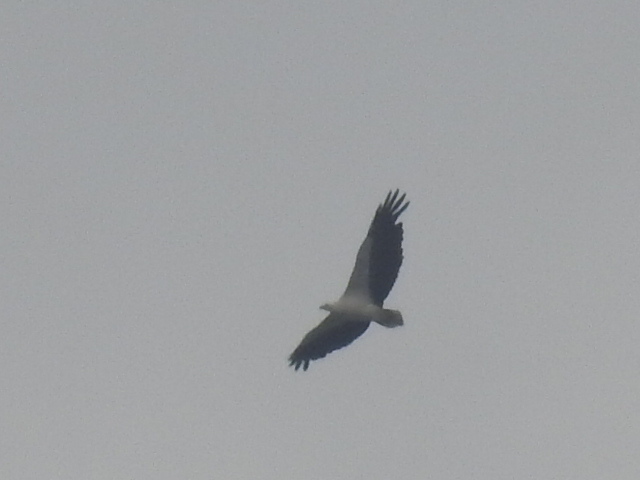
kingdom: Animalia
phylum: Chordata
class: Aves
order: Accipitriformes
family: Accipitridae
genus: Haliaeetus
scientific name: Haliaeetus leucogaster
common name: White-bellied sea eagle
